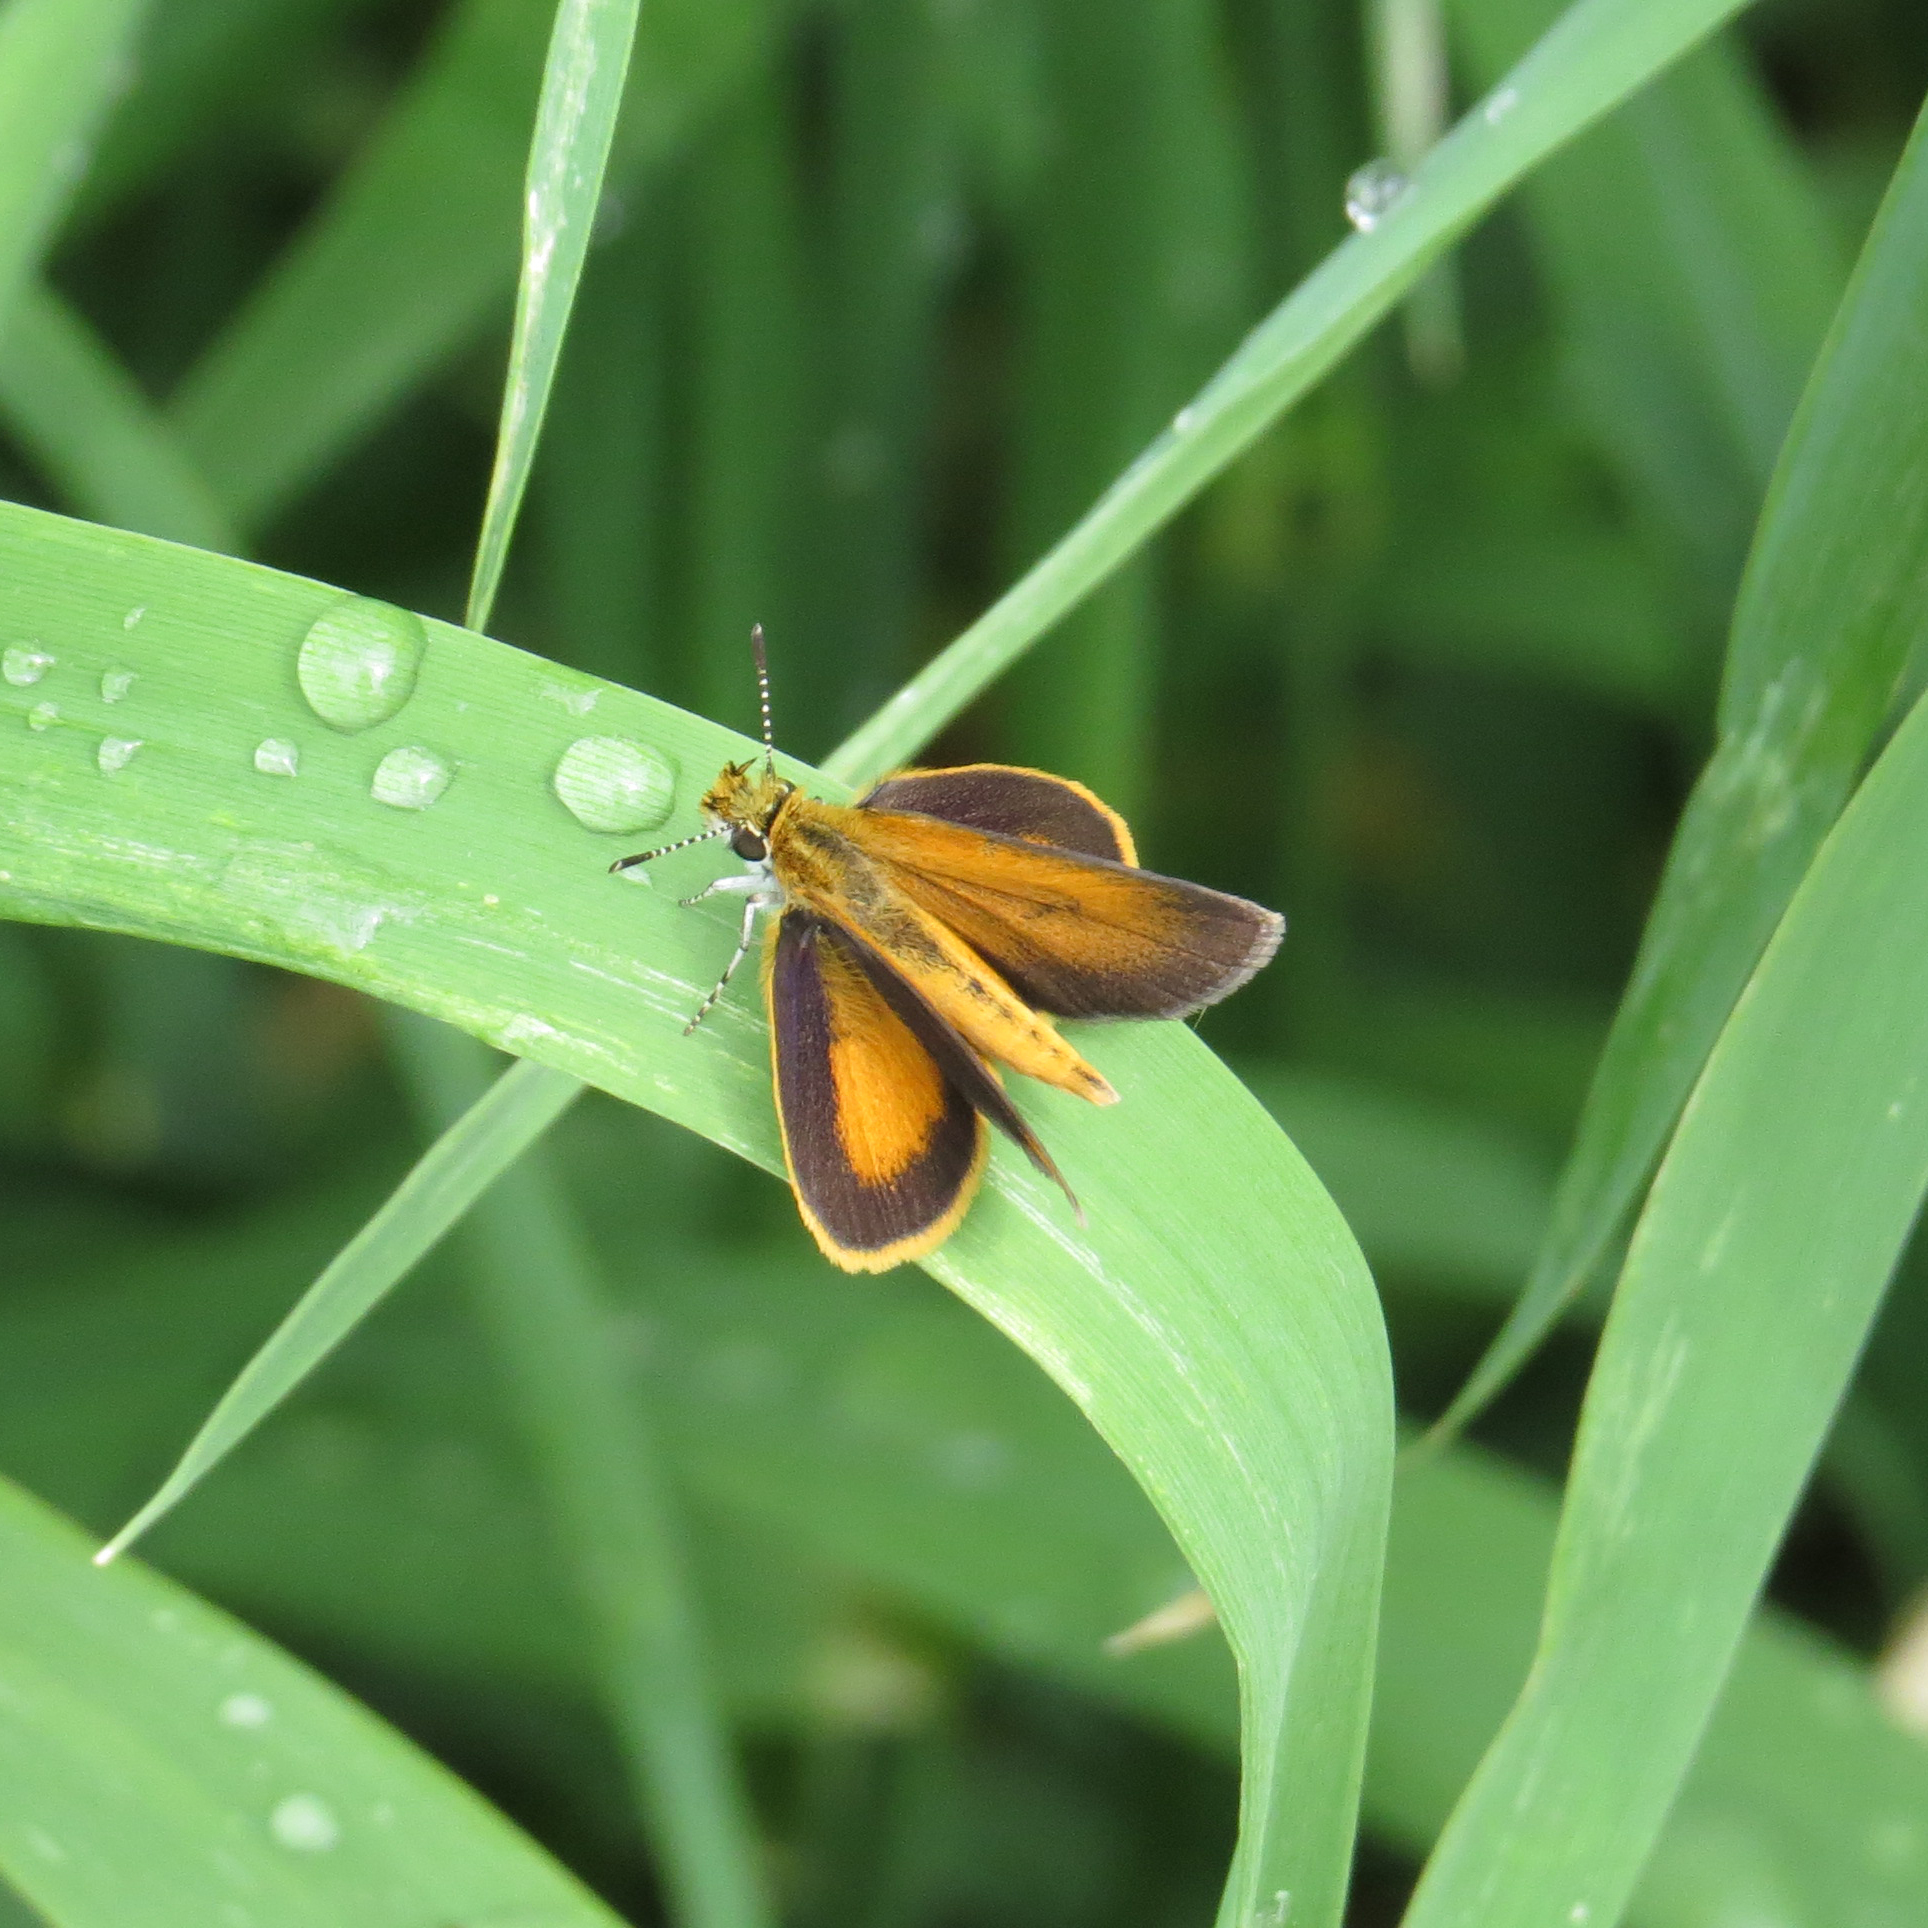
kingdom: Animalia
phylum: Arthropoda
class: Insecta
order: Lepidoptera
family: Hesperiidae
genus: Ancyloxypha
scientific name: Ancyloxypha numitor
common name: Least skipper
